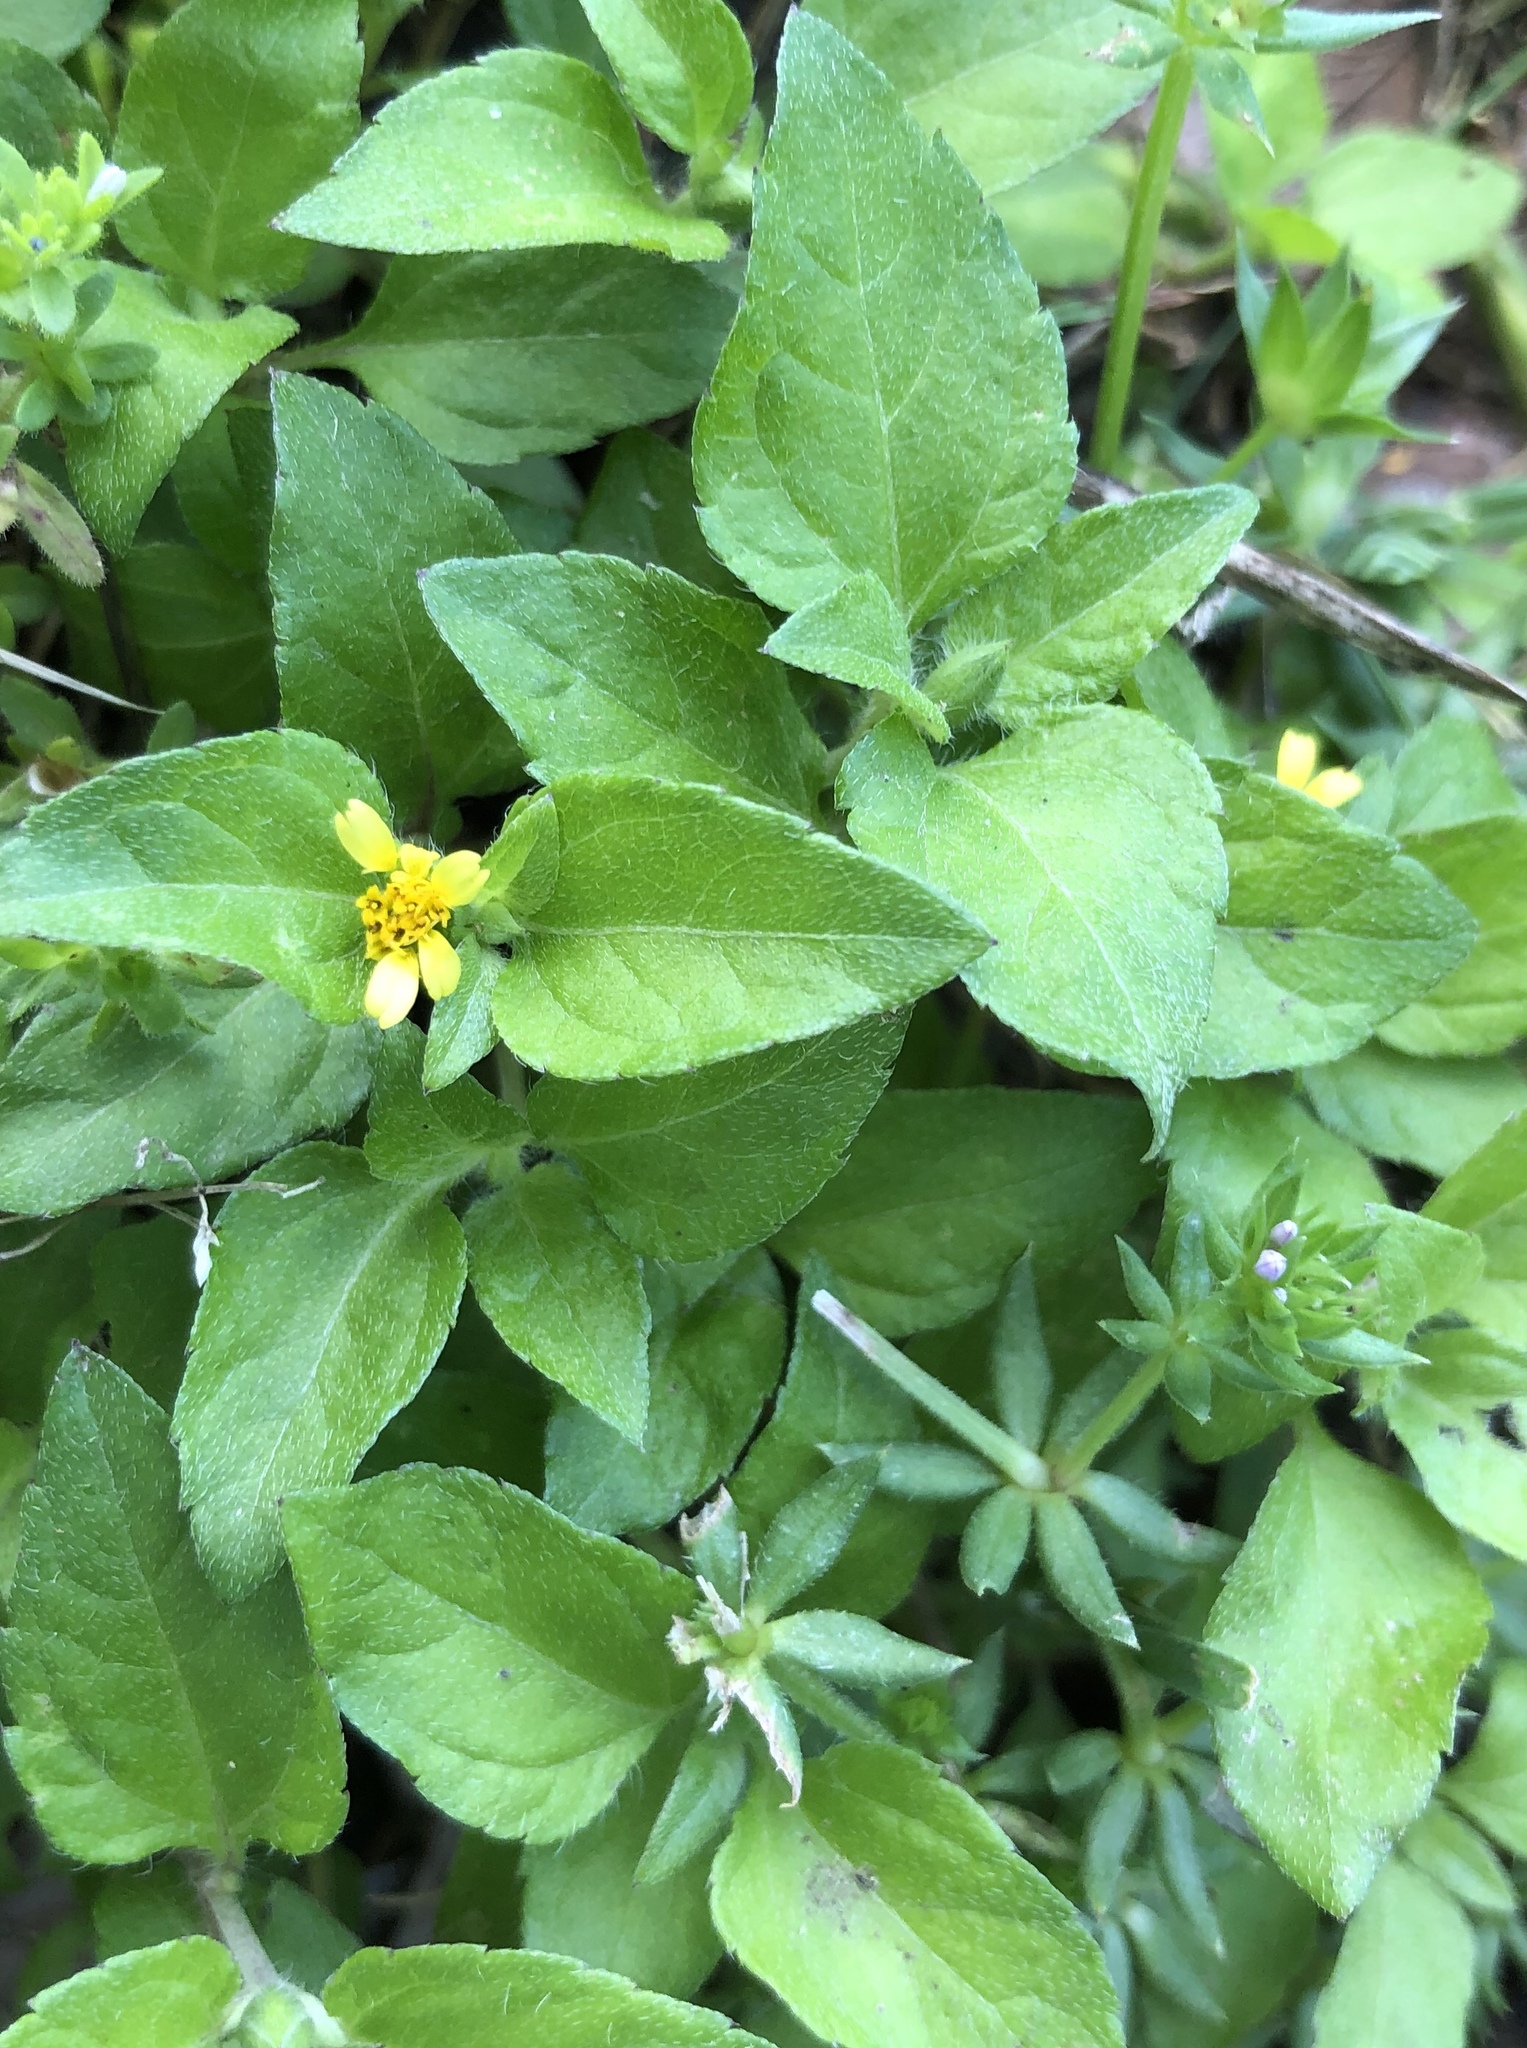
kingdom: Plantae
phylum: Tracheophyta
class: Magnoliopsida
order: Asterales
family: Asteraceae
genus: Calyptocarpus
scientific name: Calyptocarpus vialis
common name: Straggler daisy
